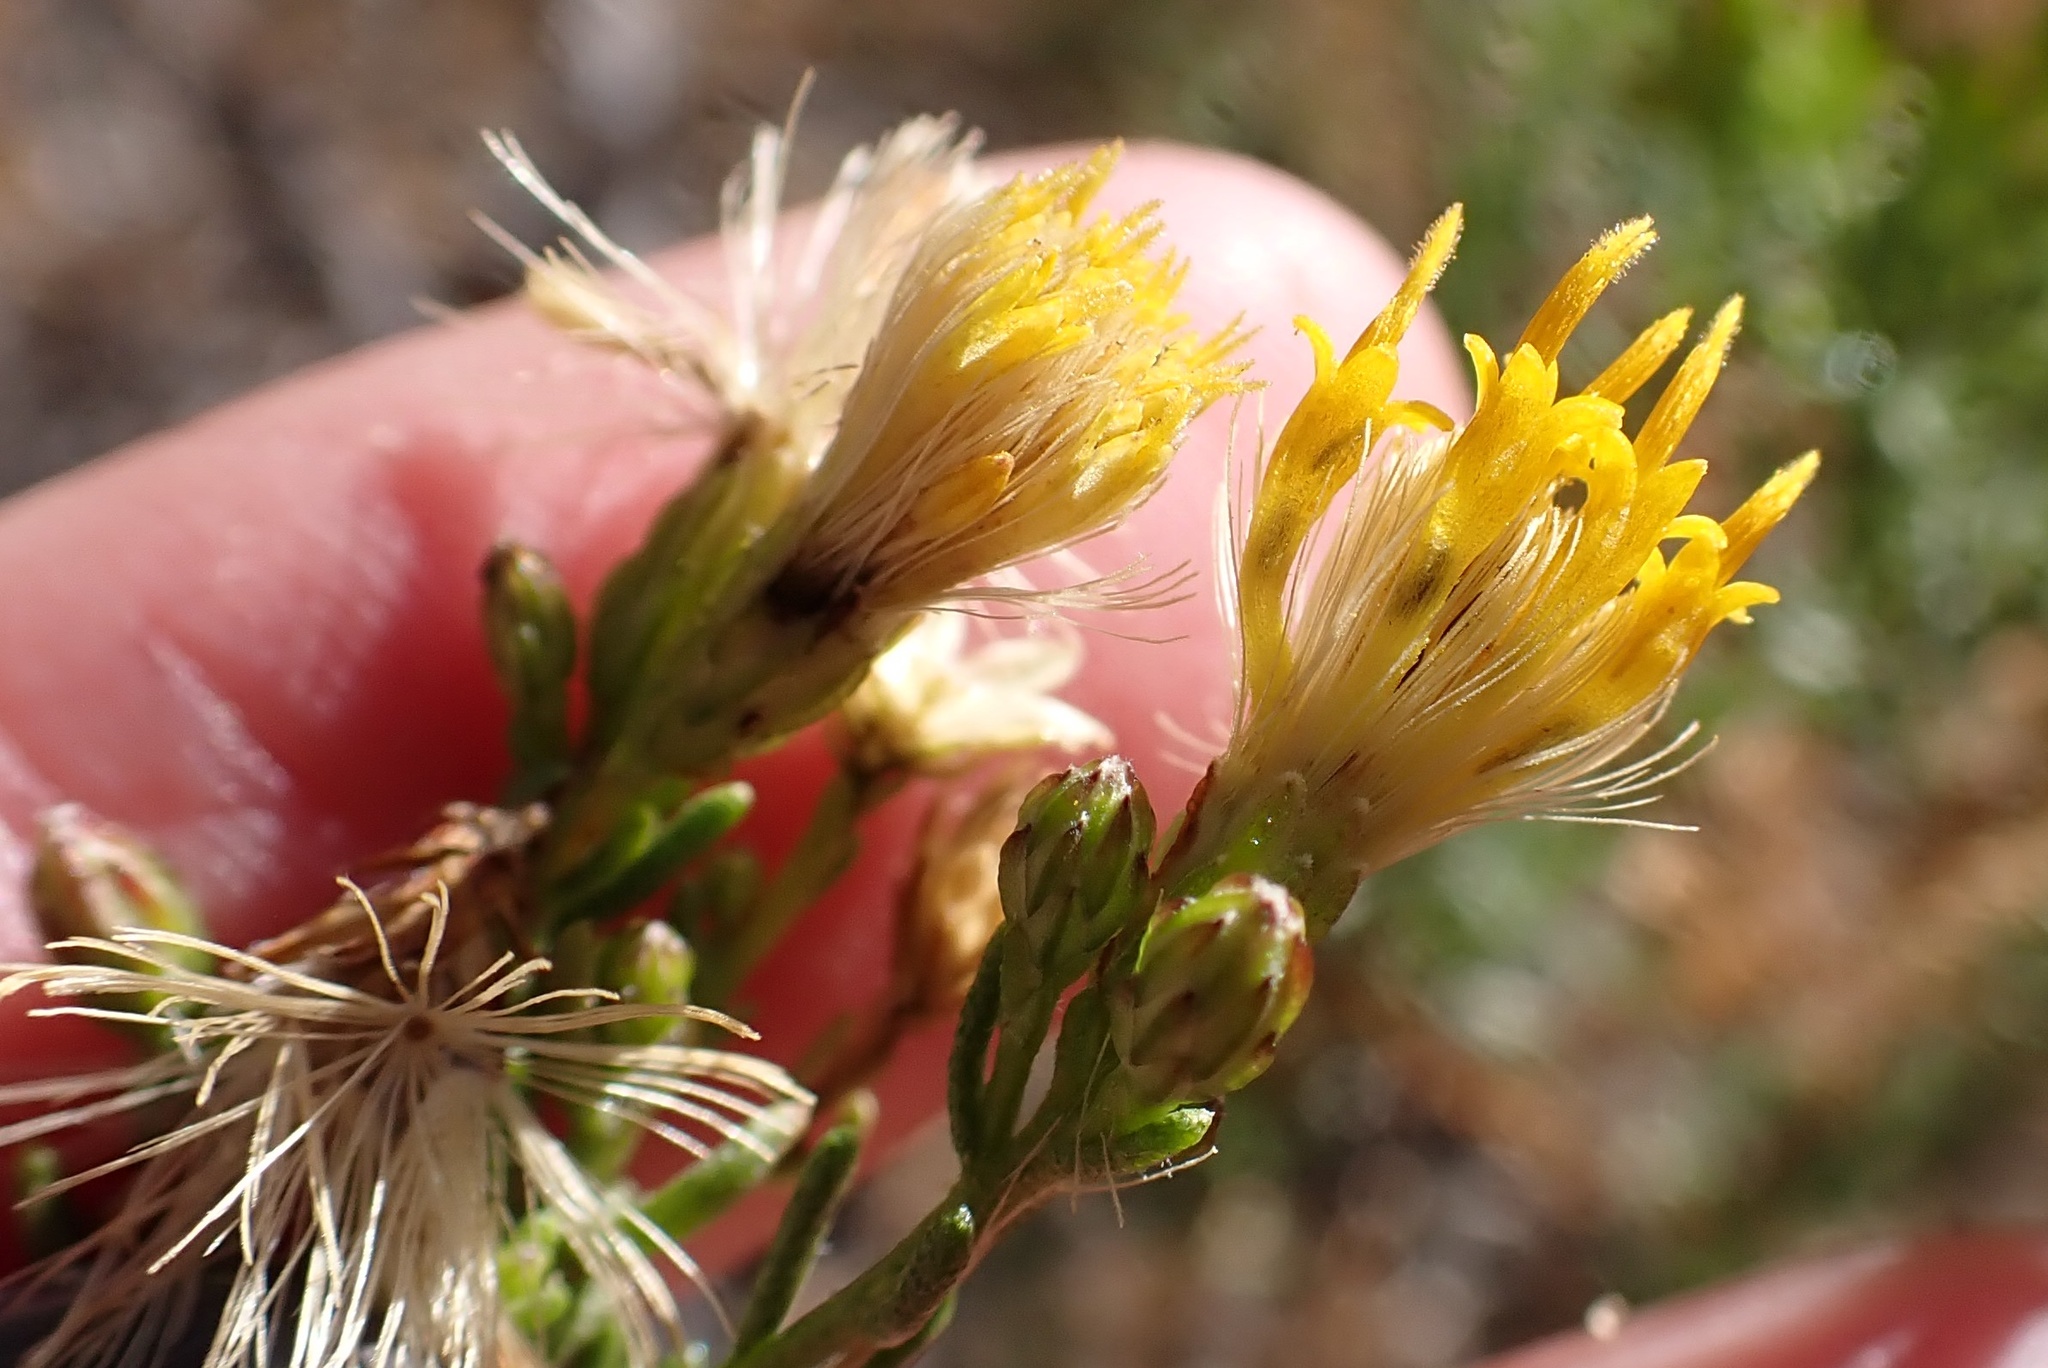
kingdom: Plantae
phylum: Tracheophyta
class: Magnoliopsida
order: Asterales
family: Asteraceae
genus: Ericameria
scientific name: Ericameria brachylepis
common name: Boundary goldenbush
